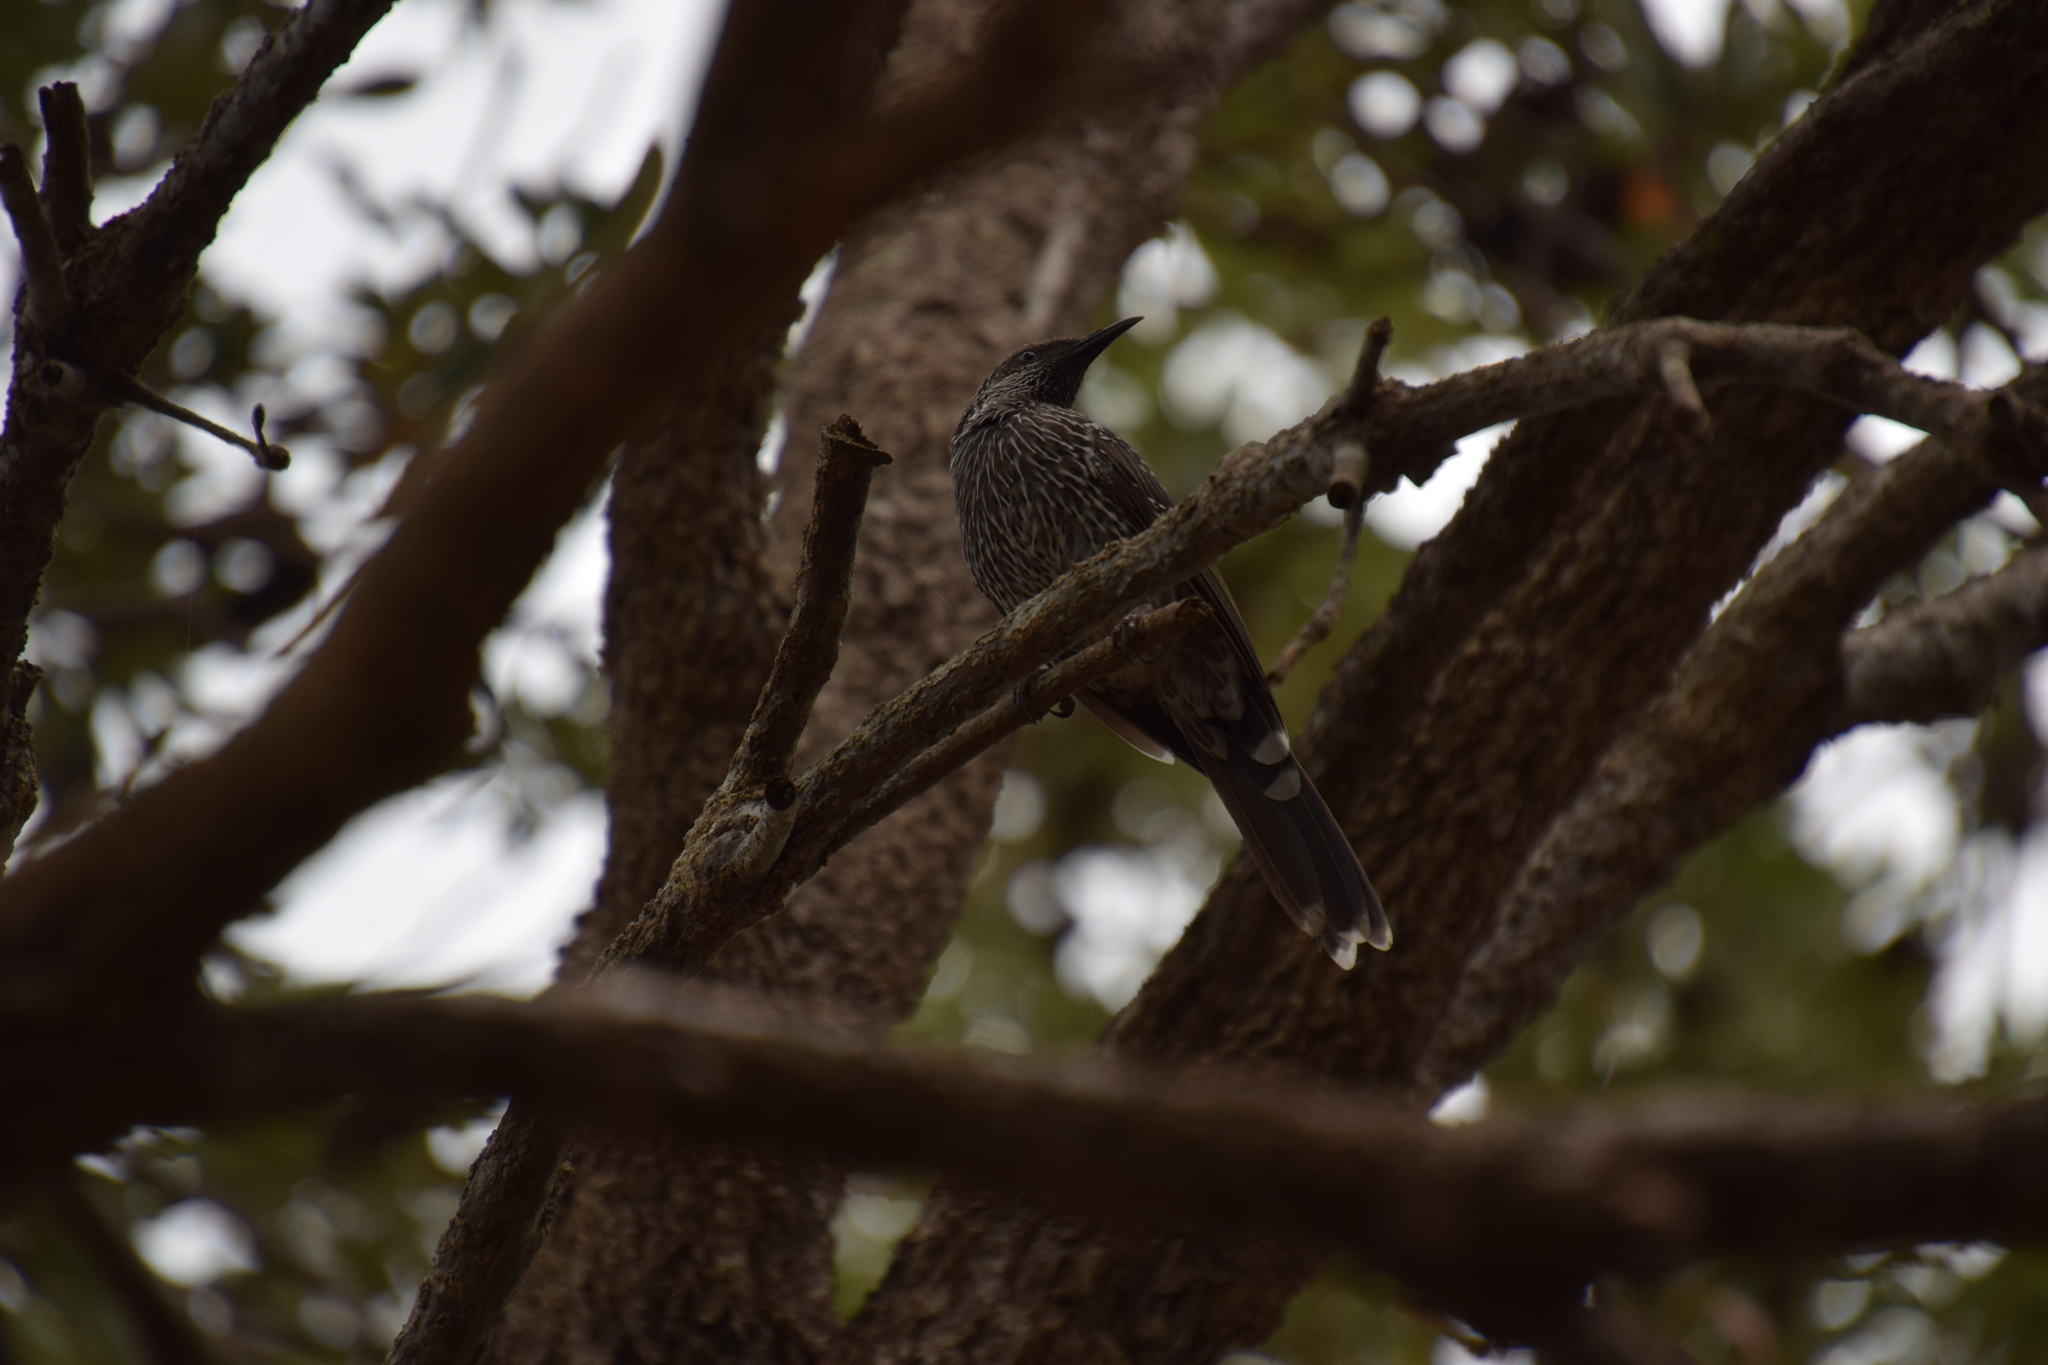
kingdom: Animalia
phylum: Chordata
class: Aves
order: Passeriformes
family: Meliphagidae
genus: Anthochaera
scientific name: Anthochaera chrysoptera
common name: Little wattlebird
